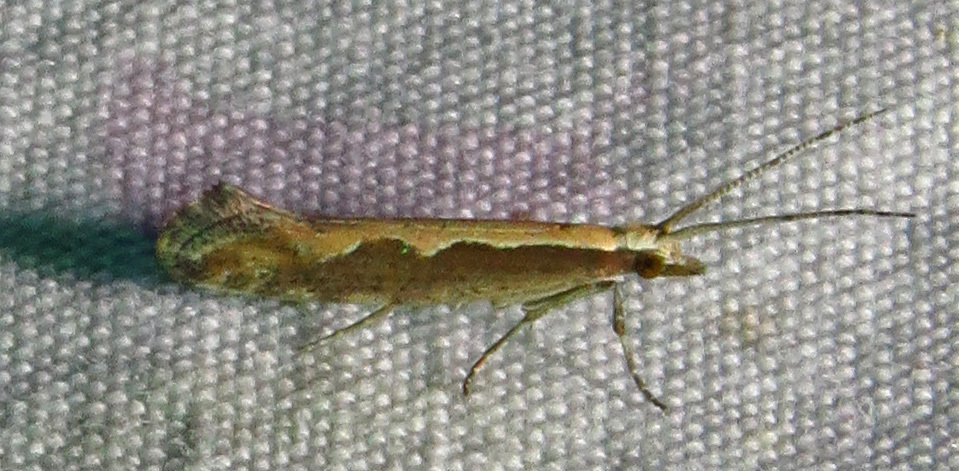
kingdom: Animalia
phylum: Arthropoda
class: Insecta
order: Lepidoptera
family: Plutellidae
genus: Plutella
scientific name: Plutella xylostella
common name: Diamond-back moth
